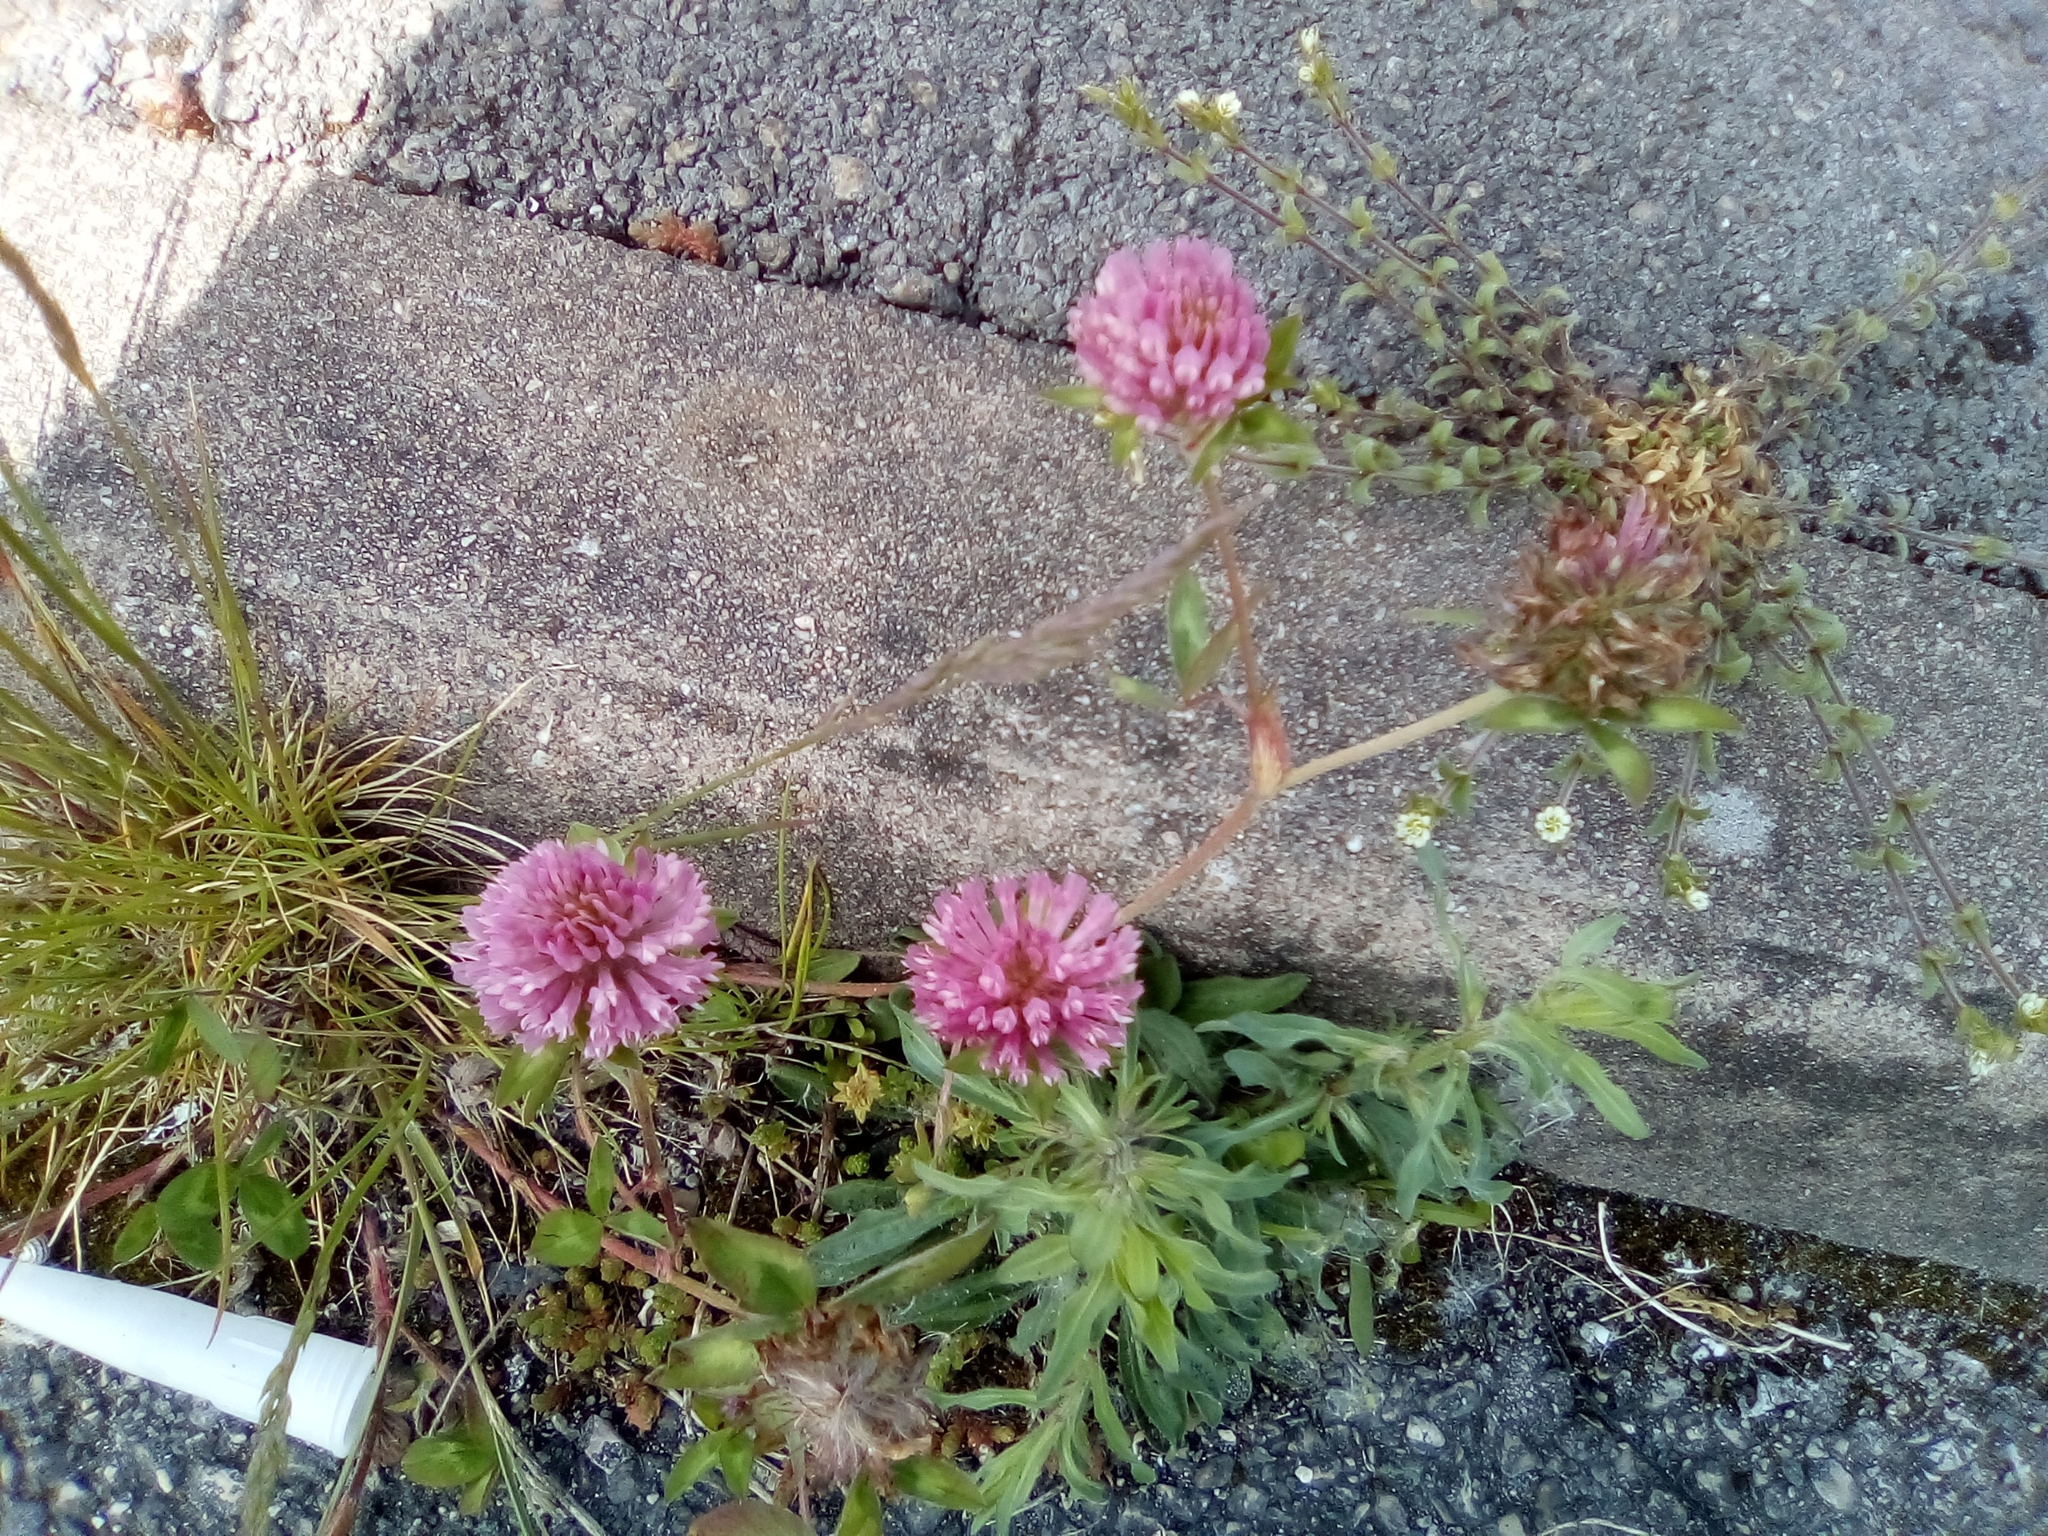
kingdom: Plantae
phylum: Tracheophyta
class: Magnoliopsida
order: Fabales
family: Fabaceae
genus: Trifolium
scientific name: Trifolium pratense
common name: Red clover
